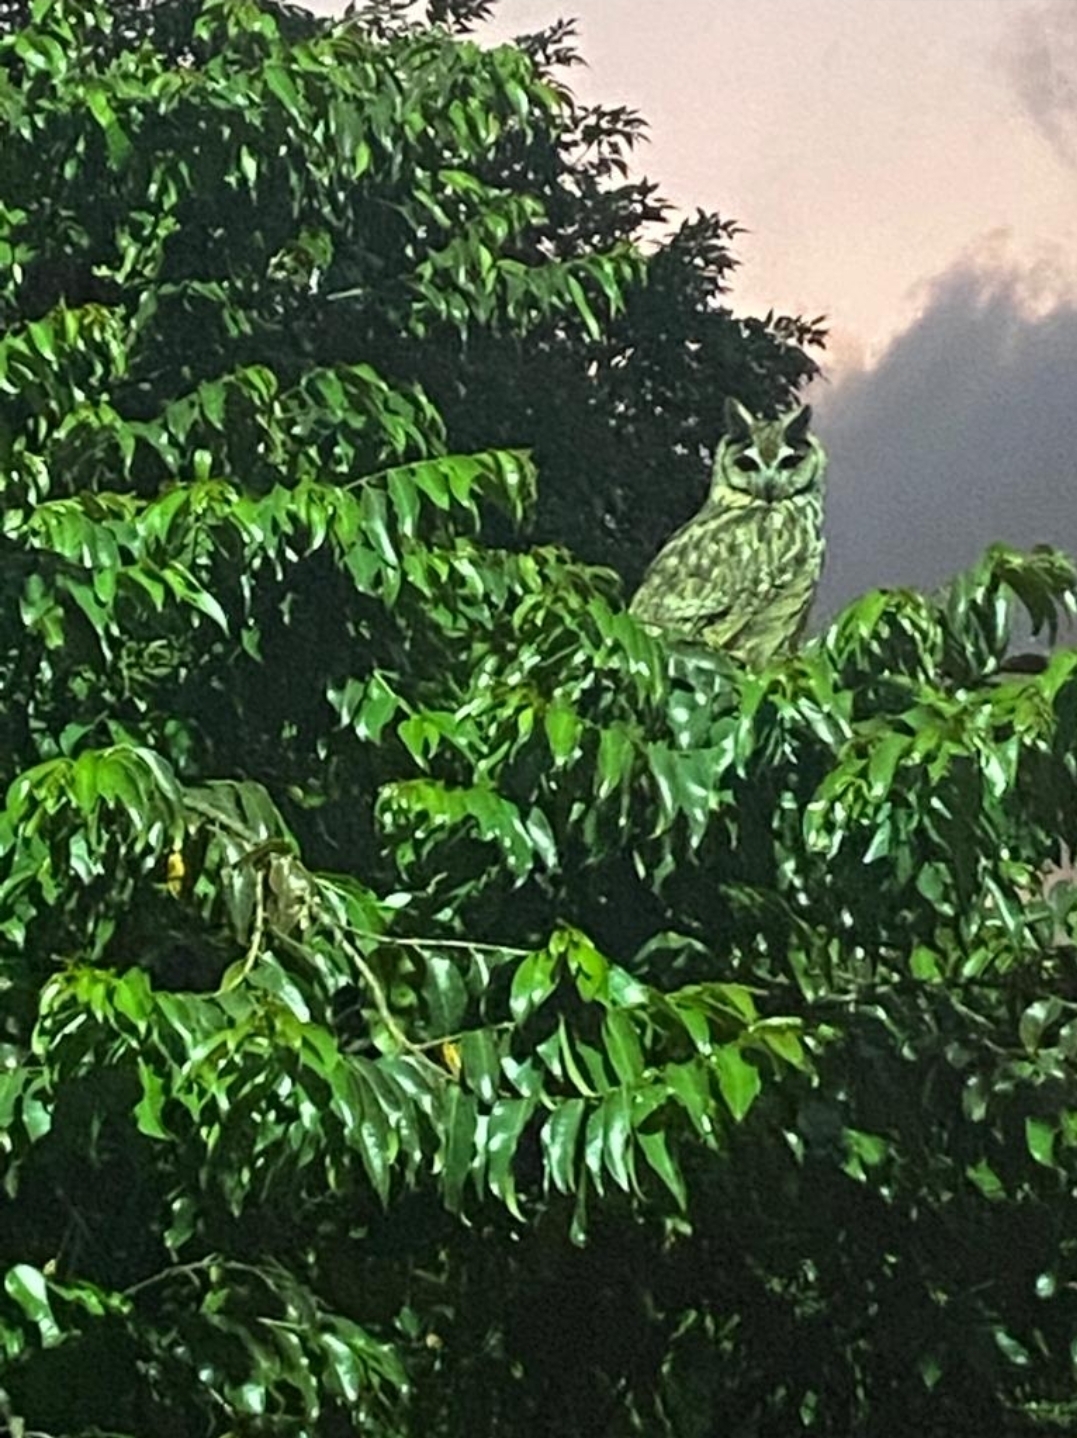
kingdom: Animalia
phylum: Chordata
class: Aves
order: Strigiformes
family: Strigidae
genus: Pseudoscops
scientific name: Pseudoscops clamator
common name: Striped owl
